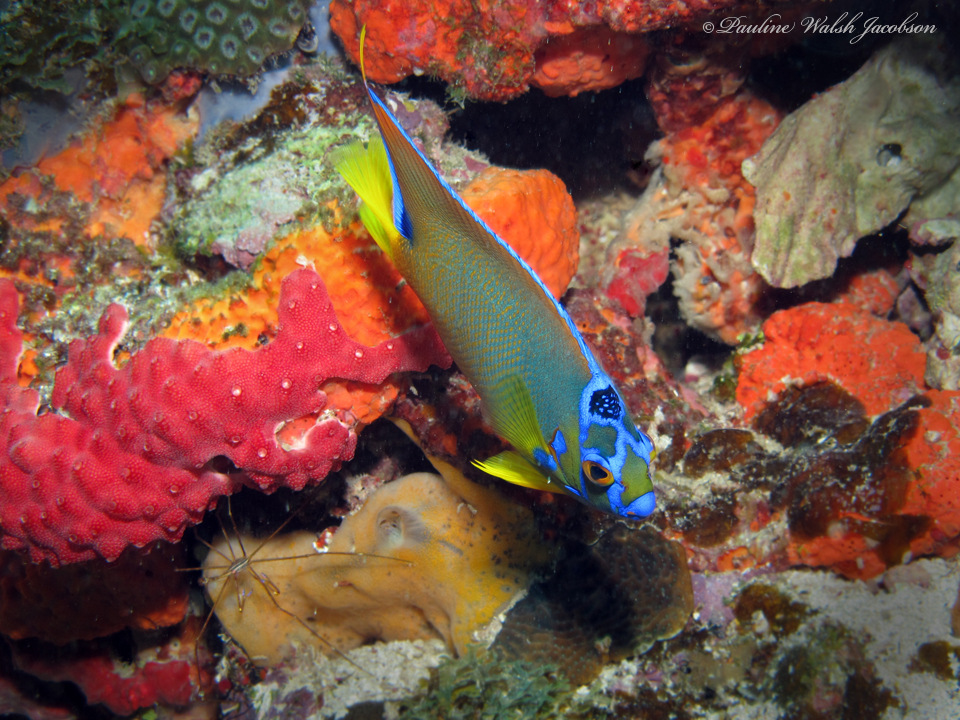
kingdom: Animalia
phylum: Chordata
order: Perciformes
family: Pomacanthidae
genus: Holacanthus
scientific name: Holacanthus ciliaris
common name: Queen angelfish
